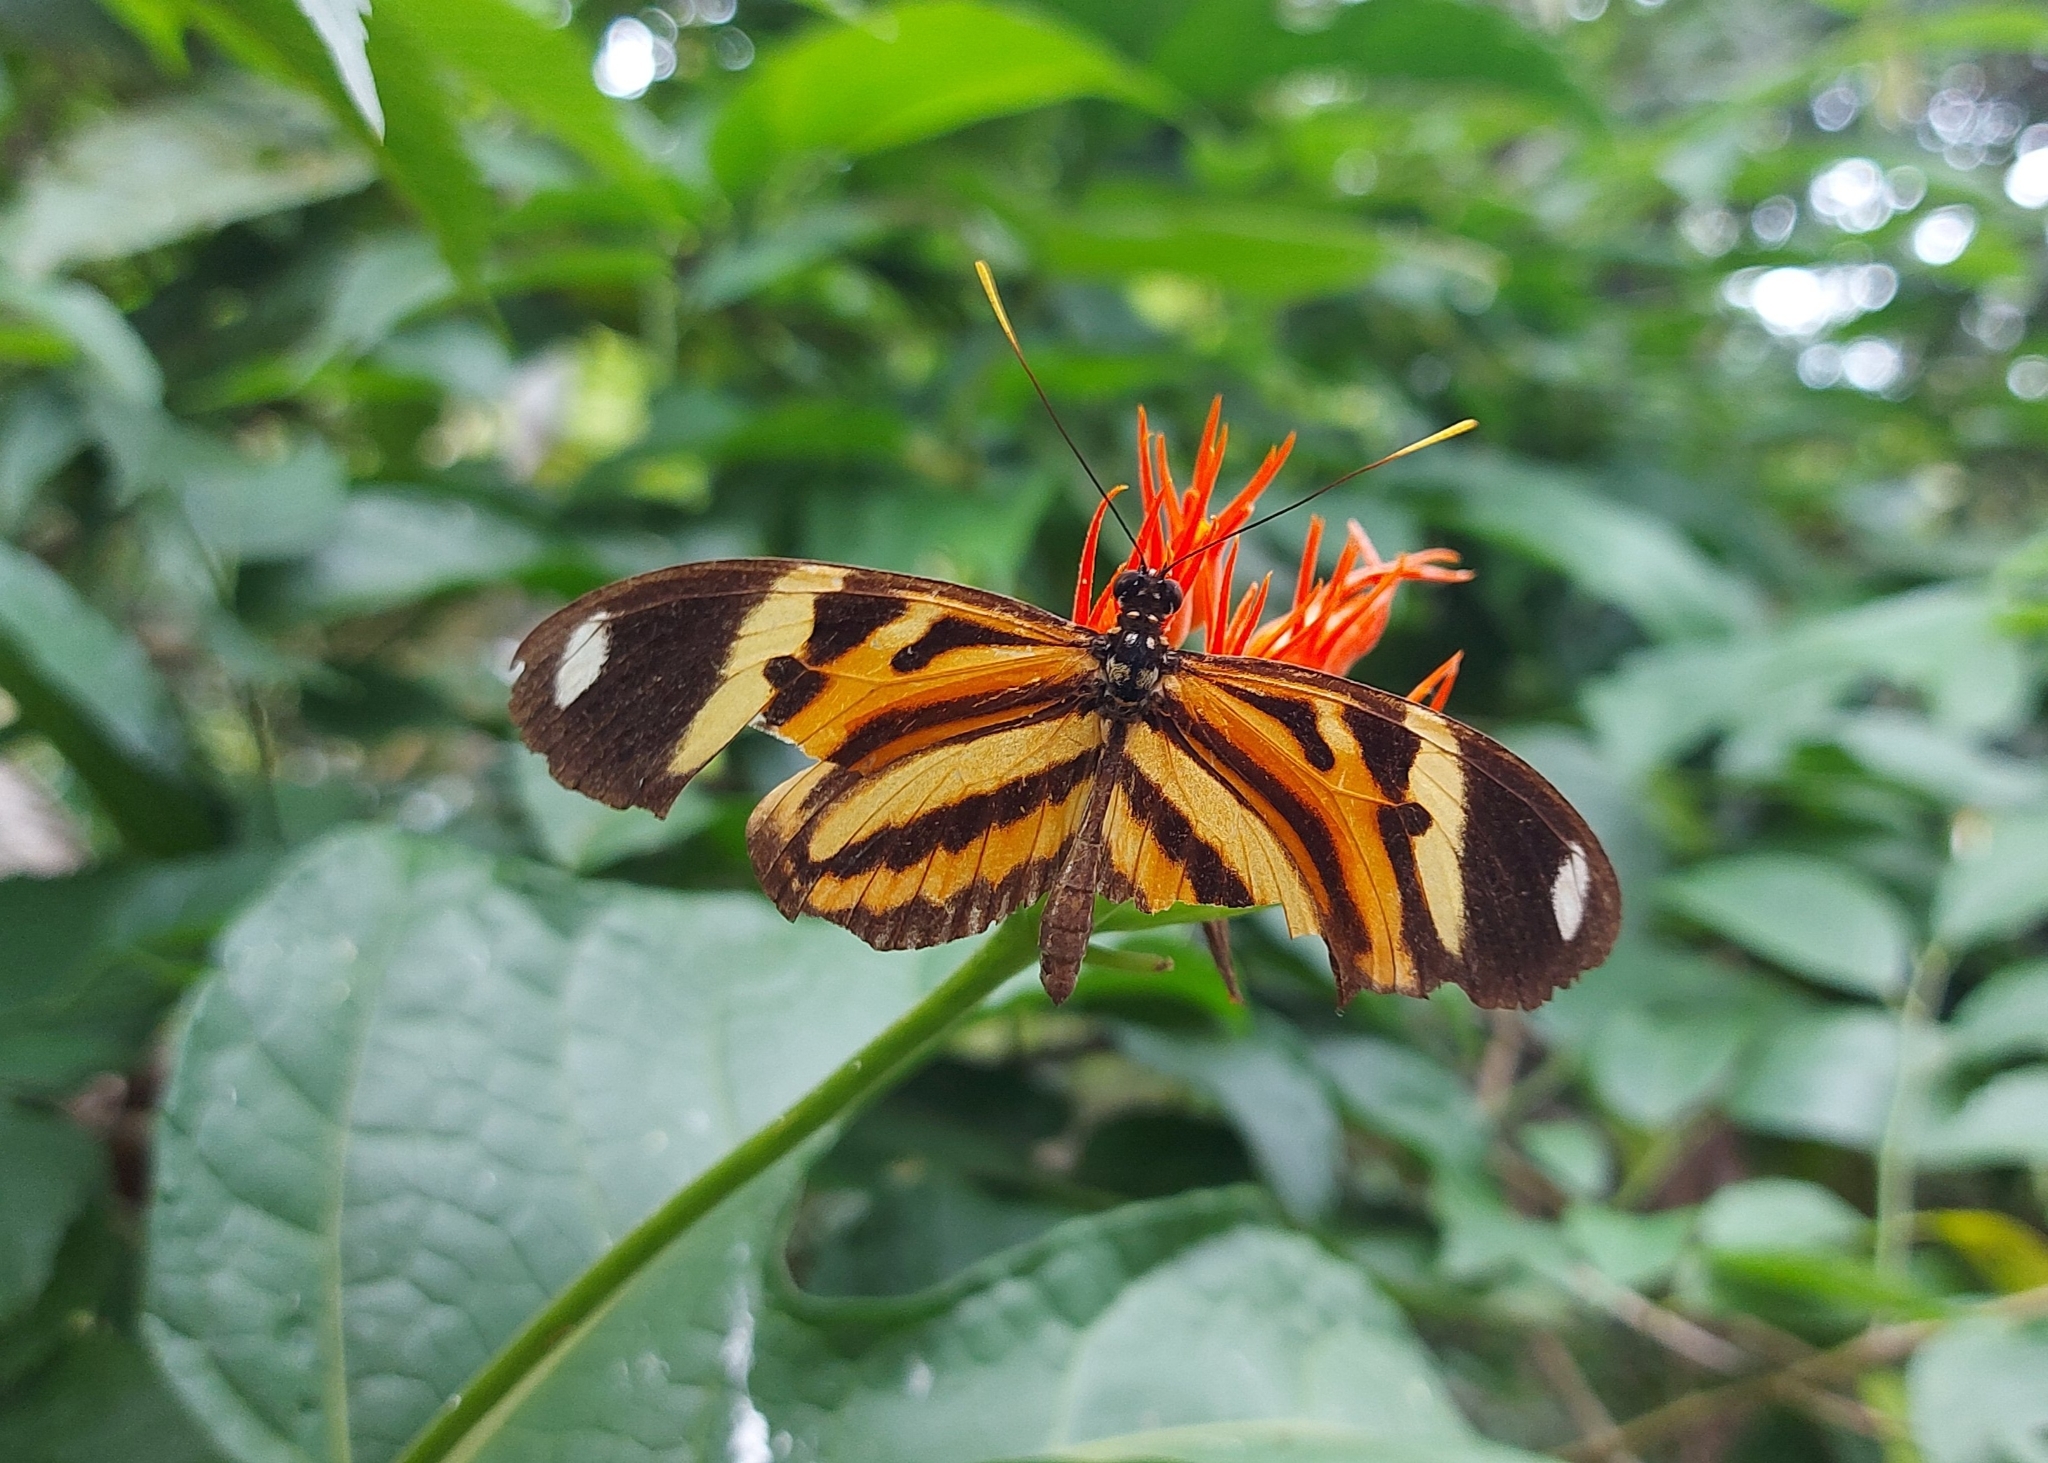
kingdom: Animalia
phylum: Arthropoda
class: Insecta
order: Lepidoptera
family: Nymphalidae
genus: Heliconius
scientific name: Heliconius ethilla
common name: Ethilia longwing
